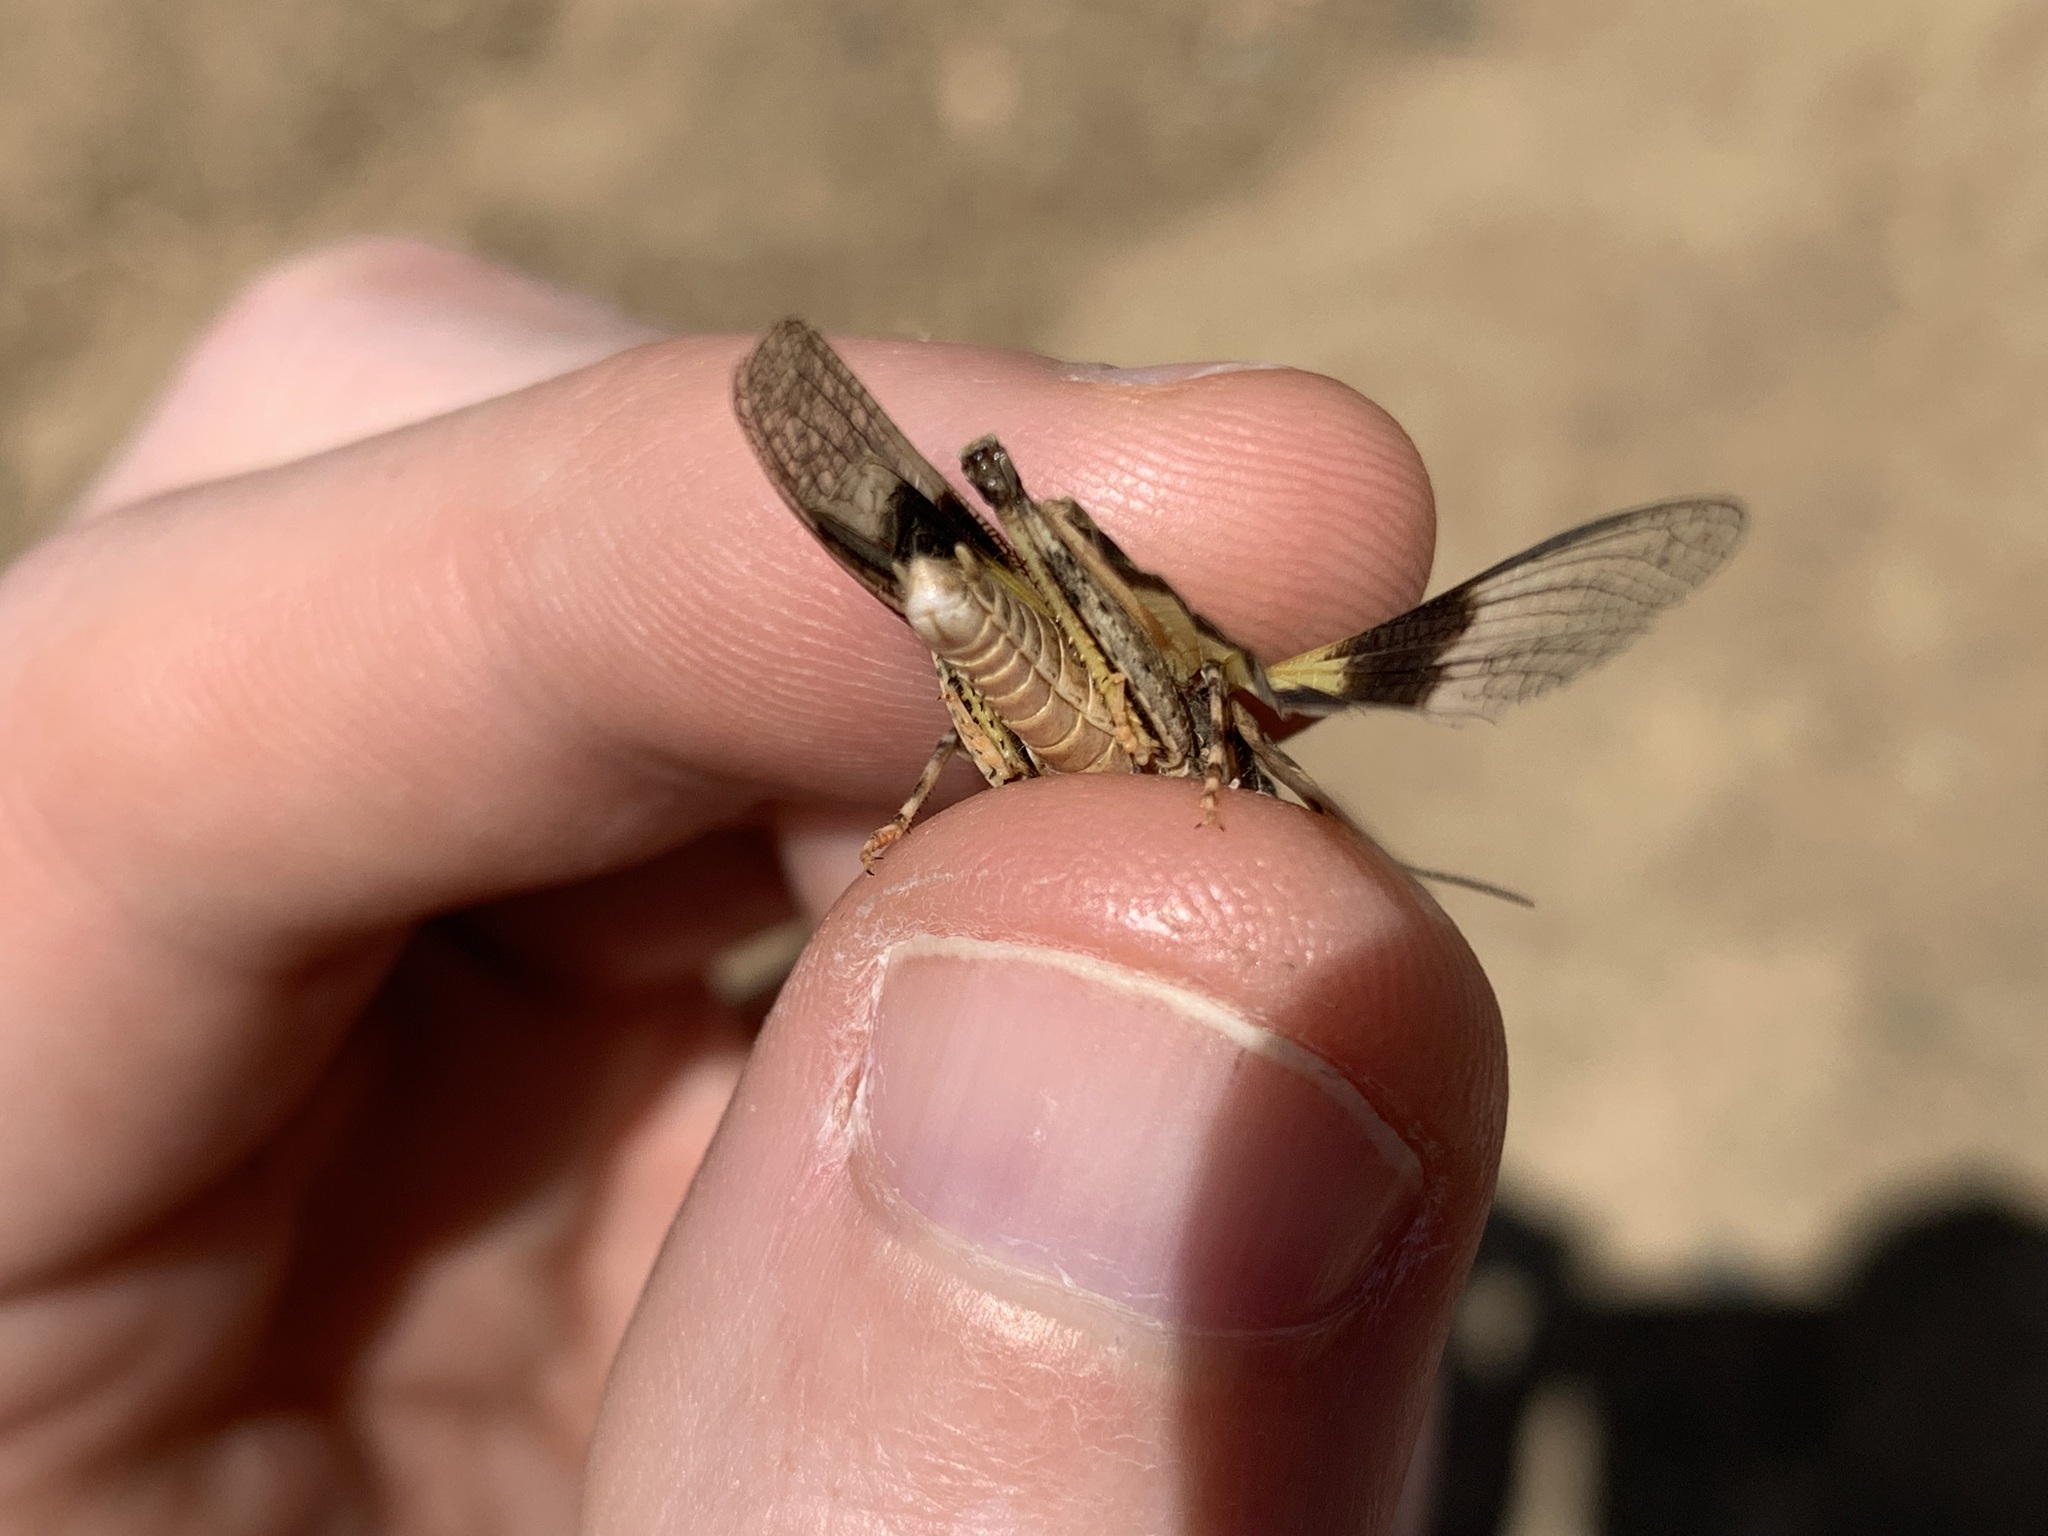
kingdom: Animalia
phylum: Arthropoda
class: Insecta
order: Orthoptera
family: Acrididae
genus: Trimerotropis
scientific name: Trimerotropis pallidipennis
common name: Pallid-winged grasshopper
